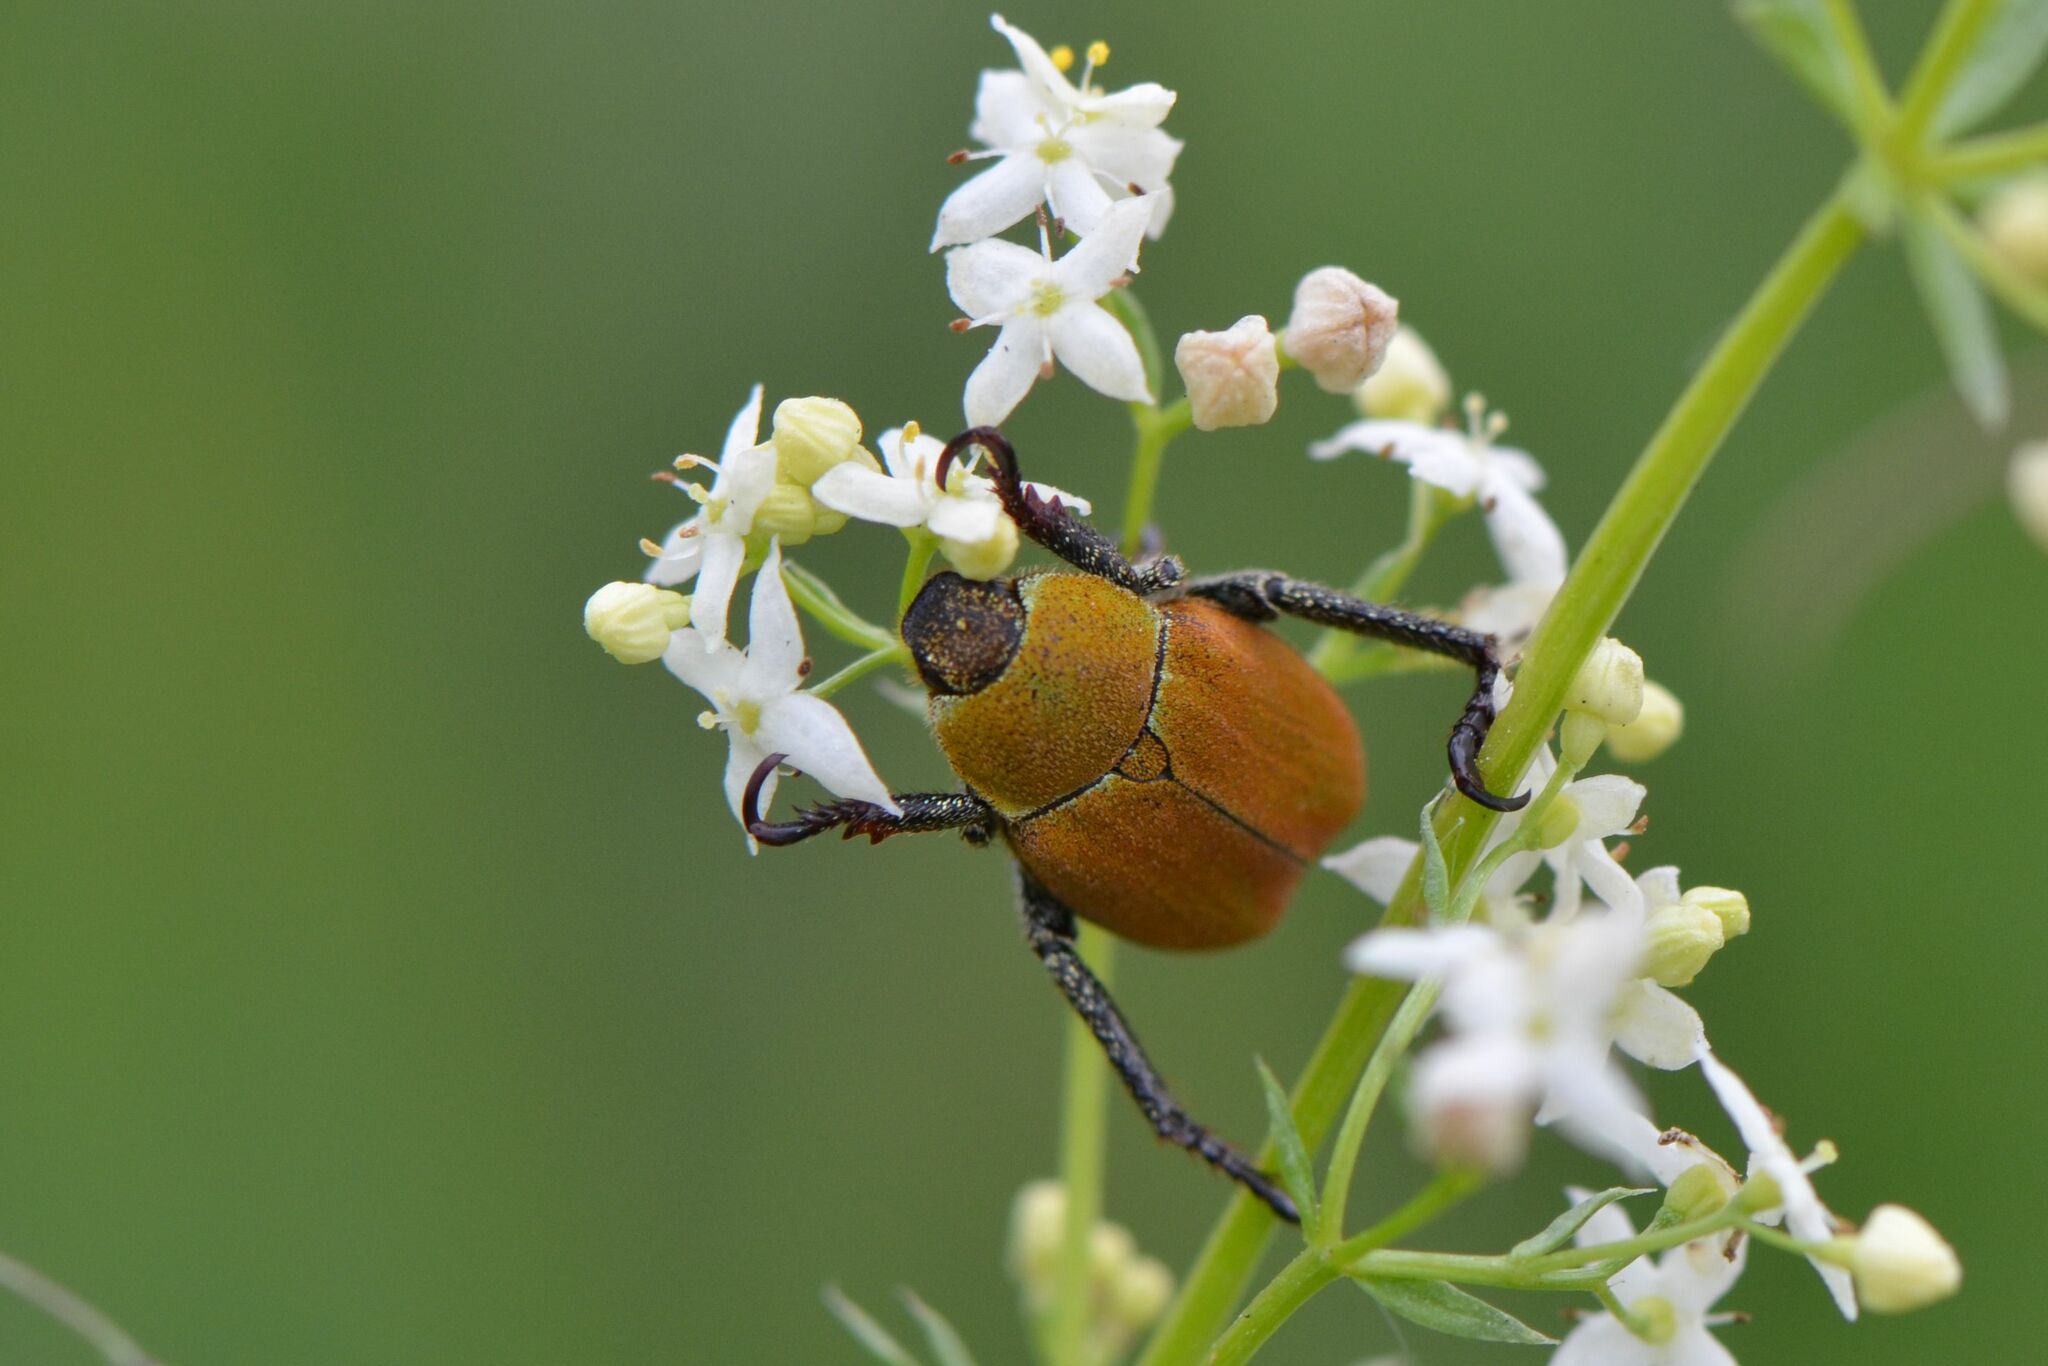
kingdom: Animalia
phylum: Arthropoda
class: Insecta
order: Coleoptera
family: Scarabaeidae
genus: Hoplia
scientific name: Hoplia argentea
